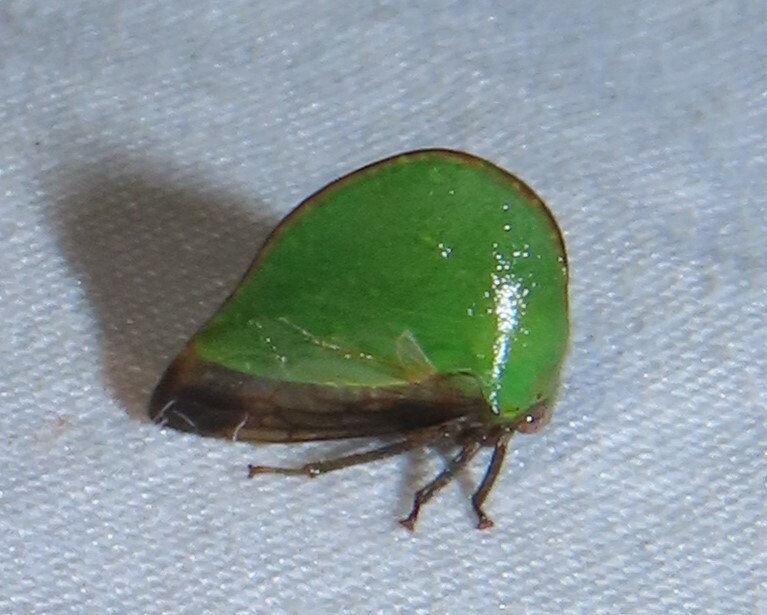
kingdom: Animalia
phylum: Arthropoda
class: Insecta
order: Hemiptera
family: Membracidae
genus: Archasia
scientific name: Archasia belfragei
